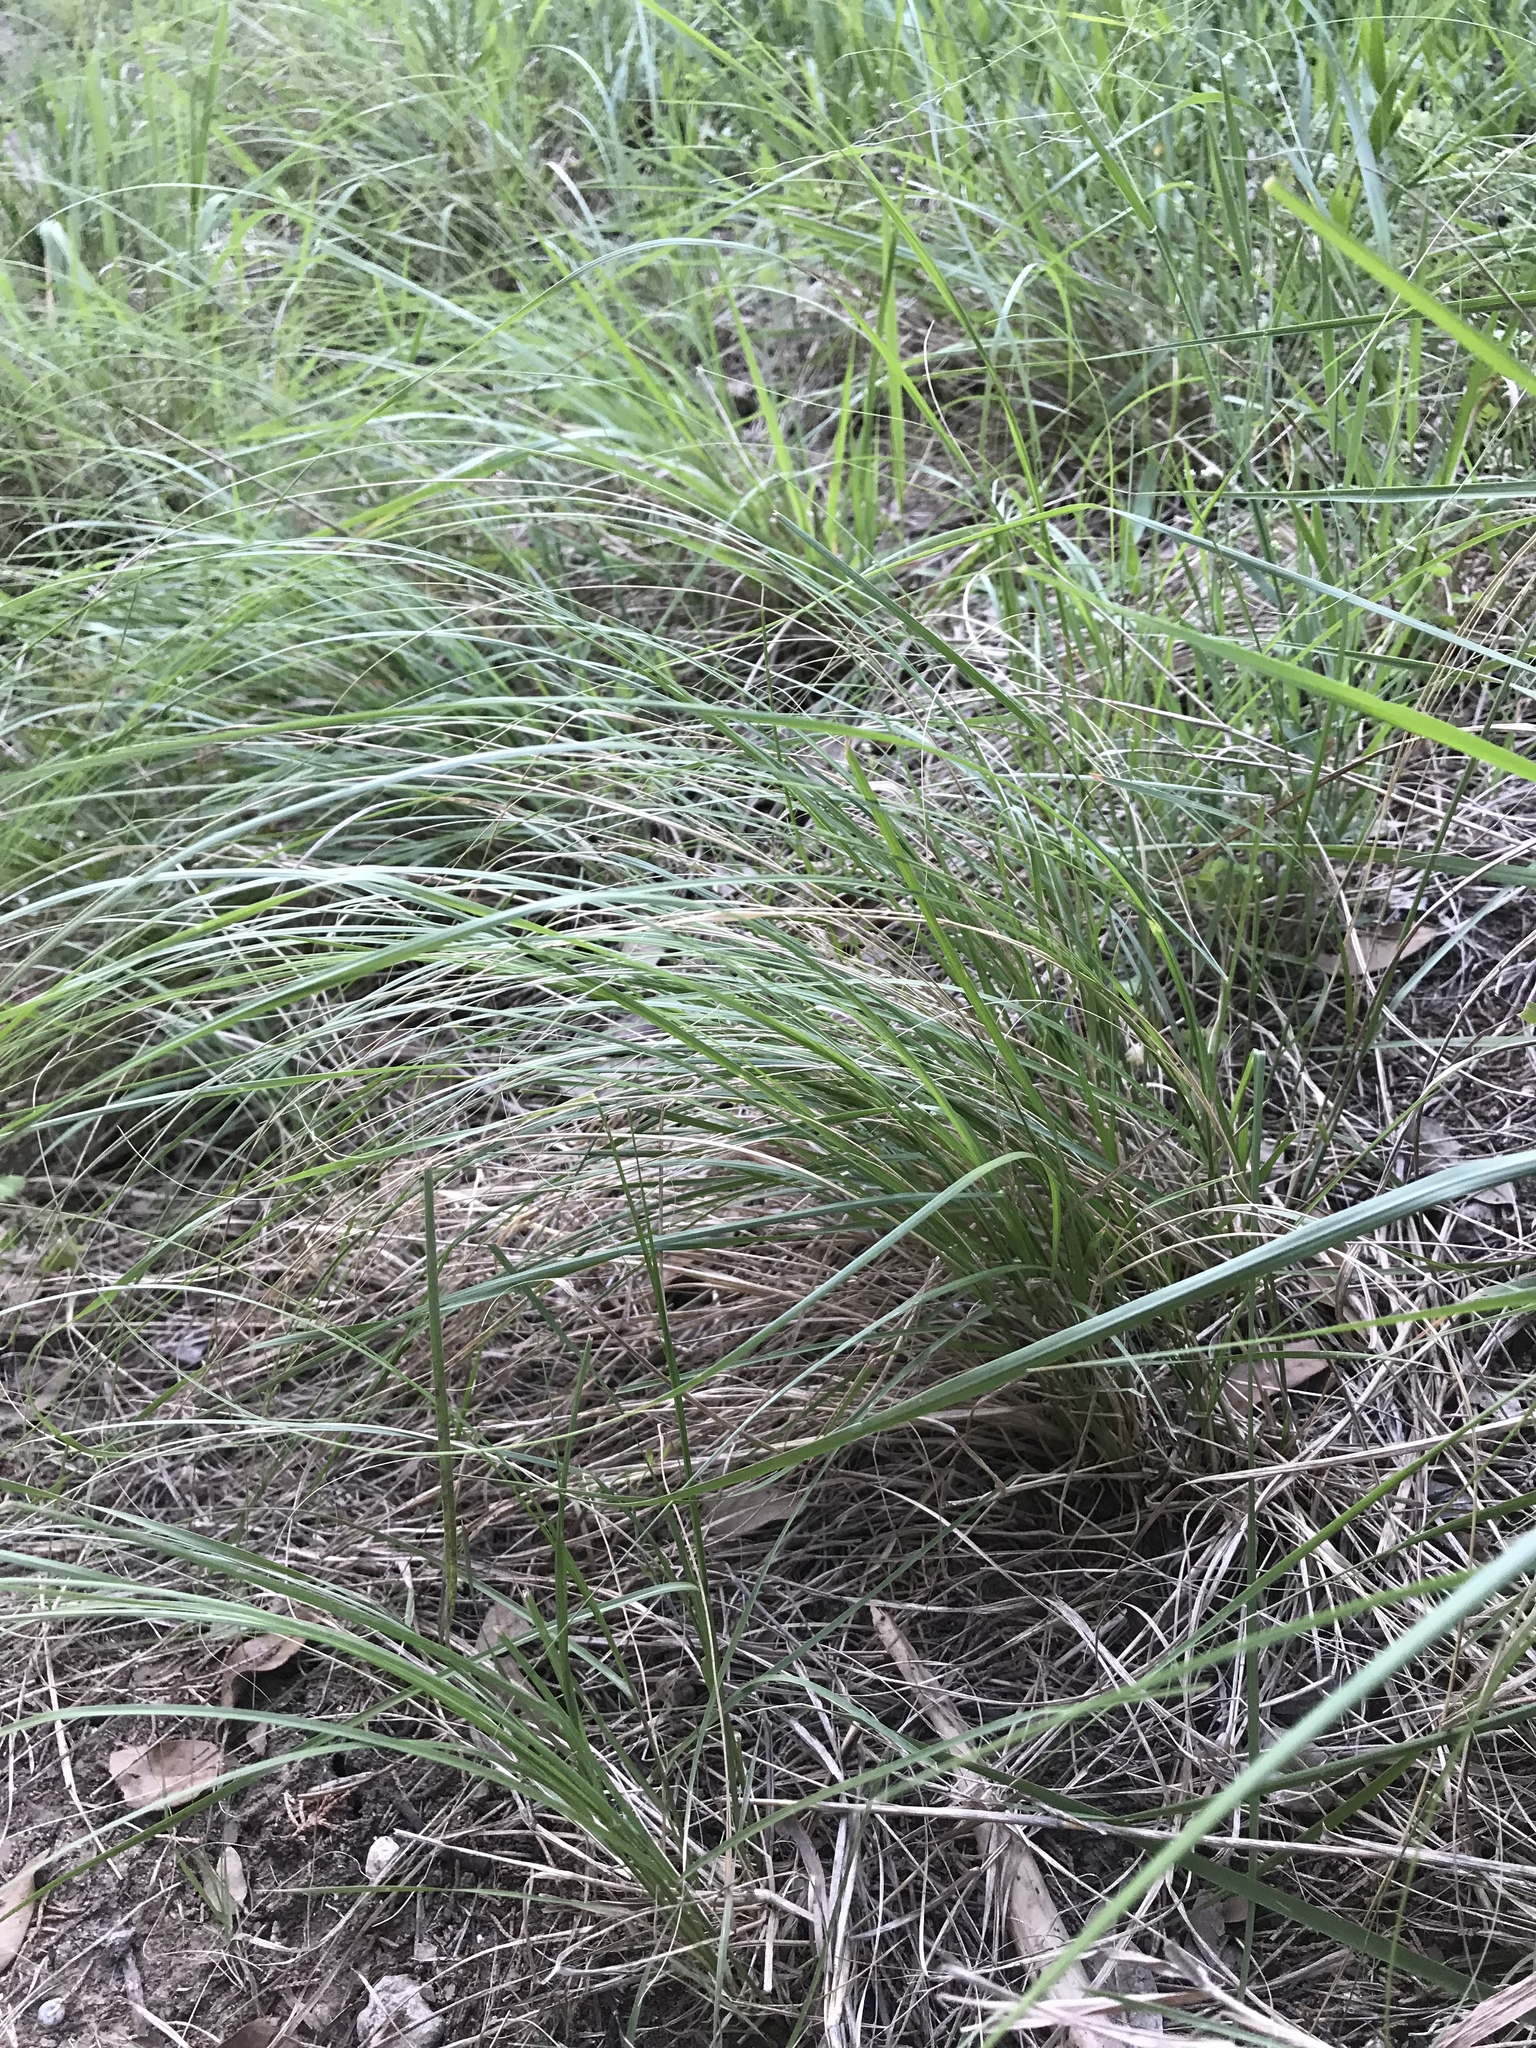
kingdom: Plantae
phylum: Tracheophyta
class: Liliopsida
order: Poales
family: Poaceae
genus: Nassella
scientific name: Nassella leucotricha
